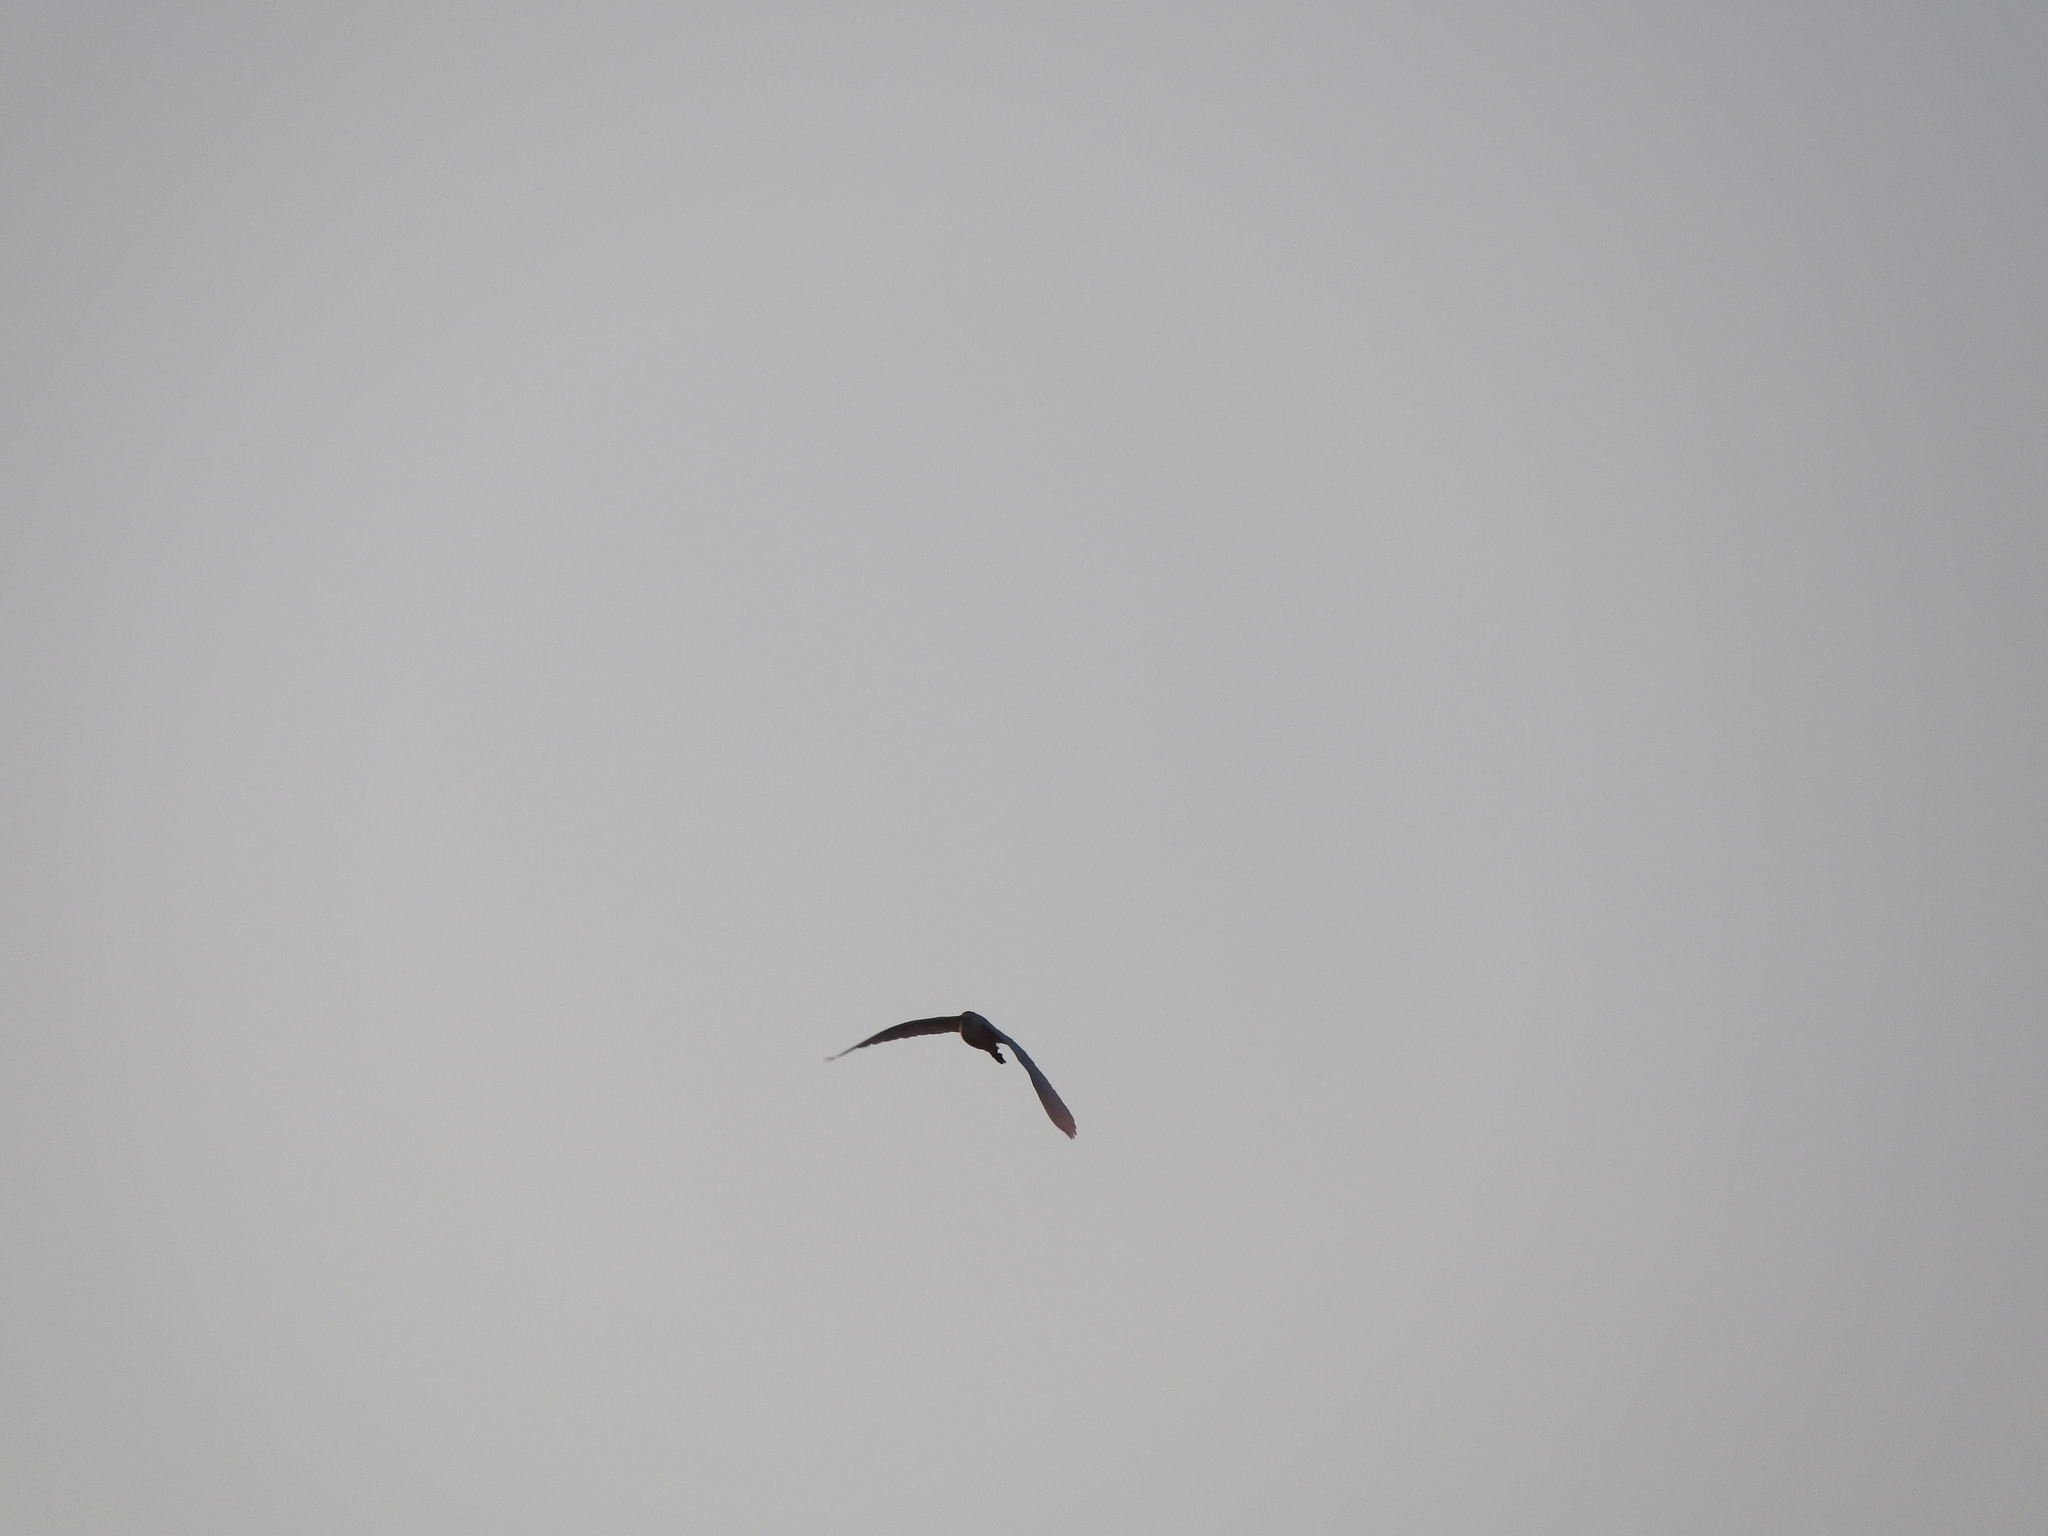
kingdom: Animalia
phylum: Chordata
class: Aves
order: Pelecaniformes
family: Ardeidae
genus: Bubulcus
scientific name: Bubulcus ibis
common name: Cattle egret
